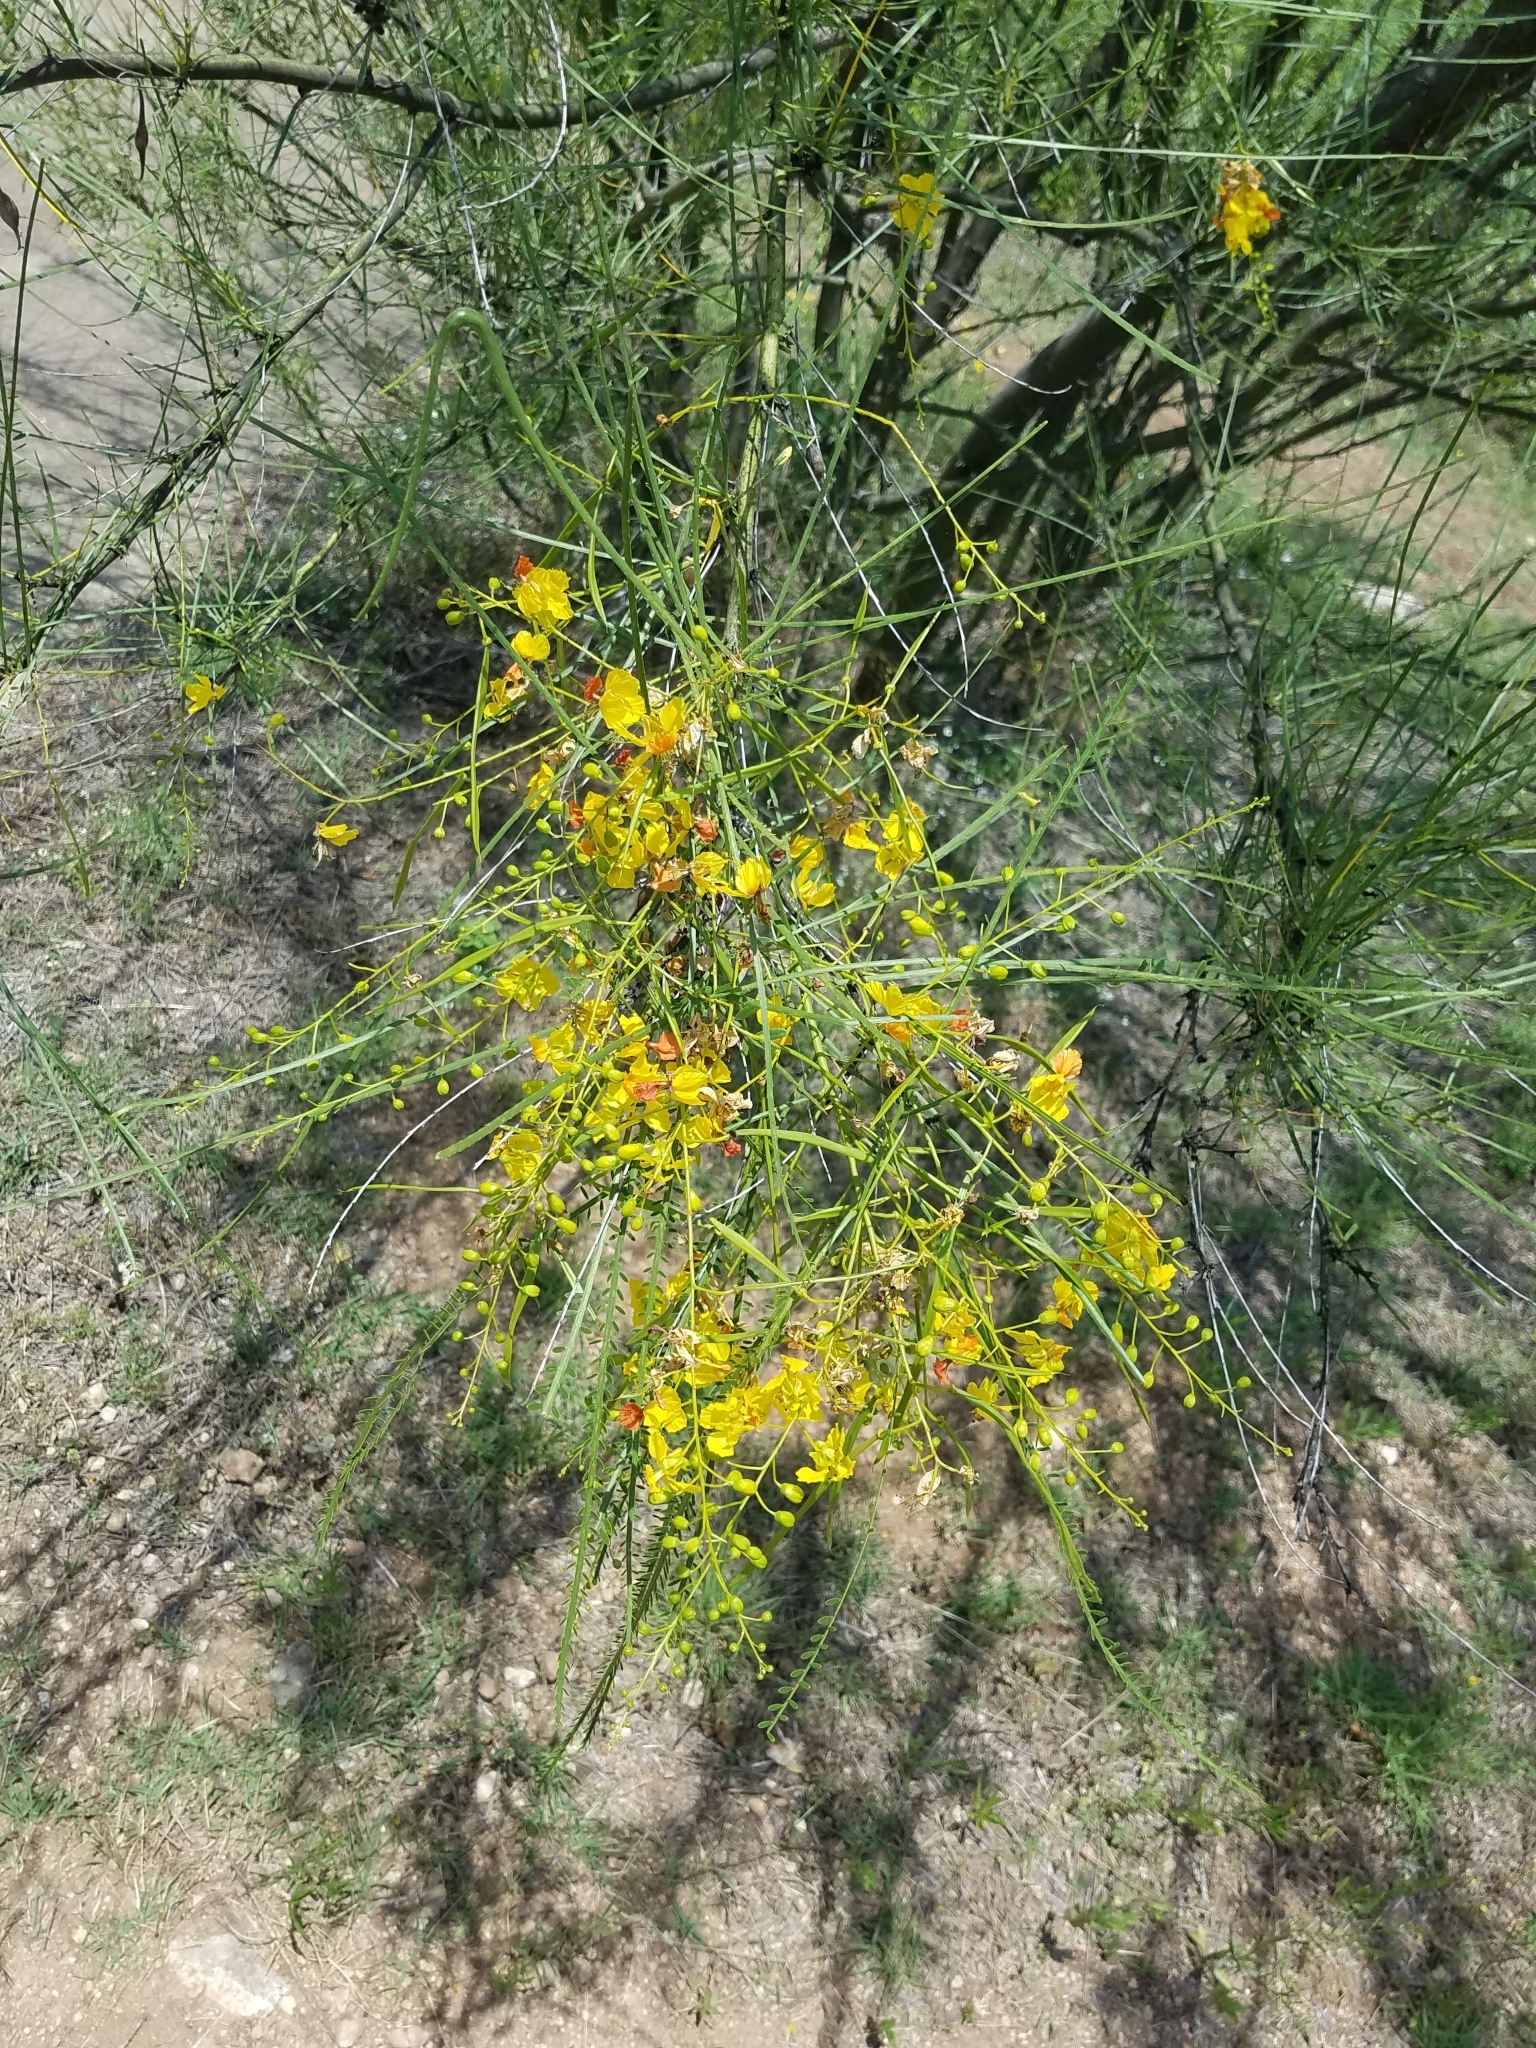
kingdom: Plantae
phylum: Tracheophyta
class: Magnoliopsida
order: Fabales
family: Fabaceae
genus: Parkinsonia
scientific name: Parkinsonia aculeata
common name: Jerusalem thorn
